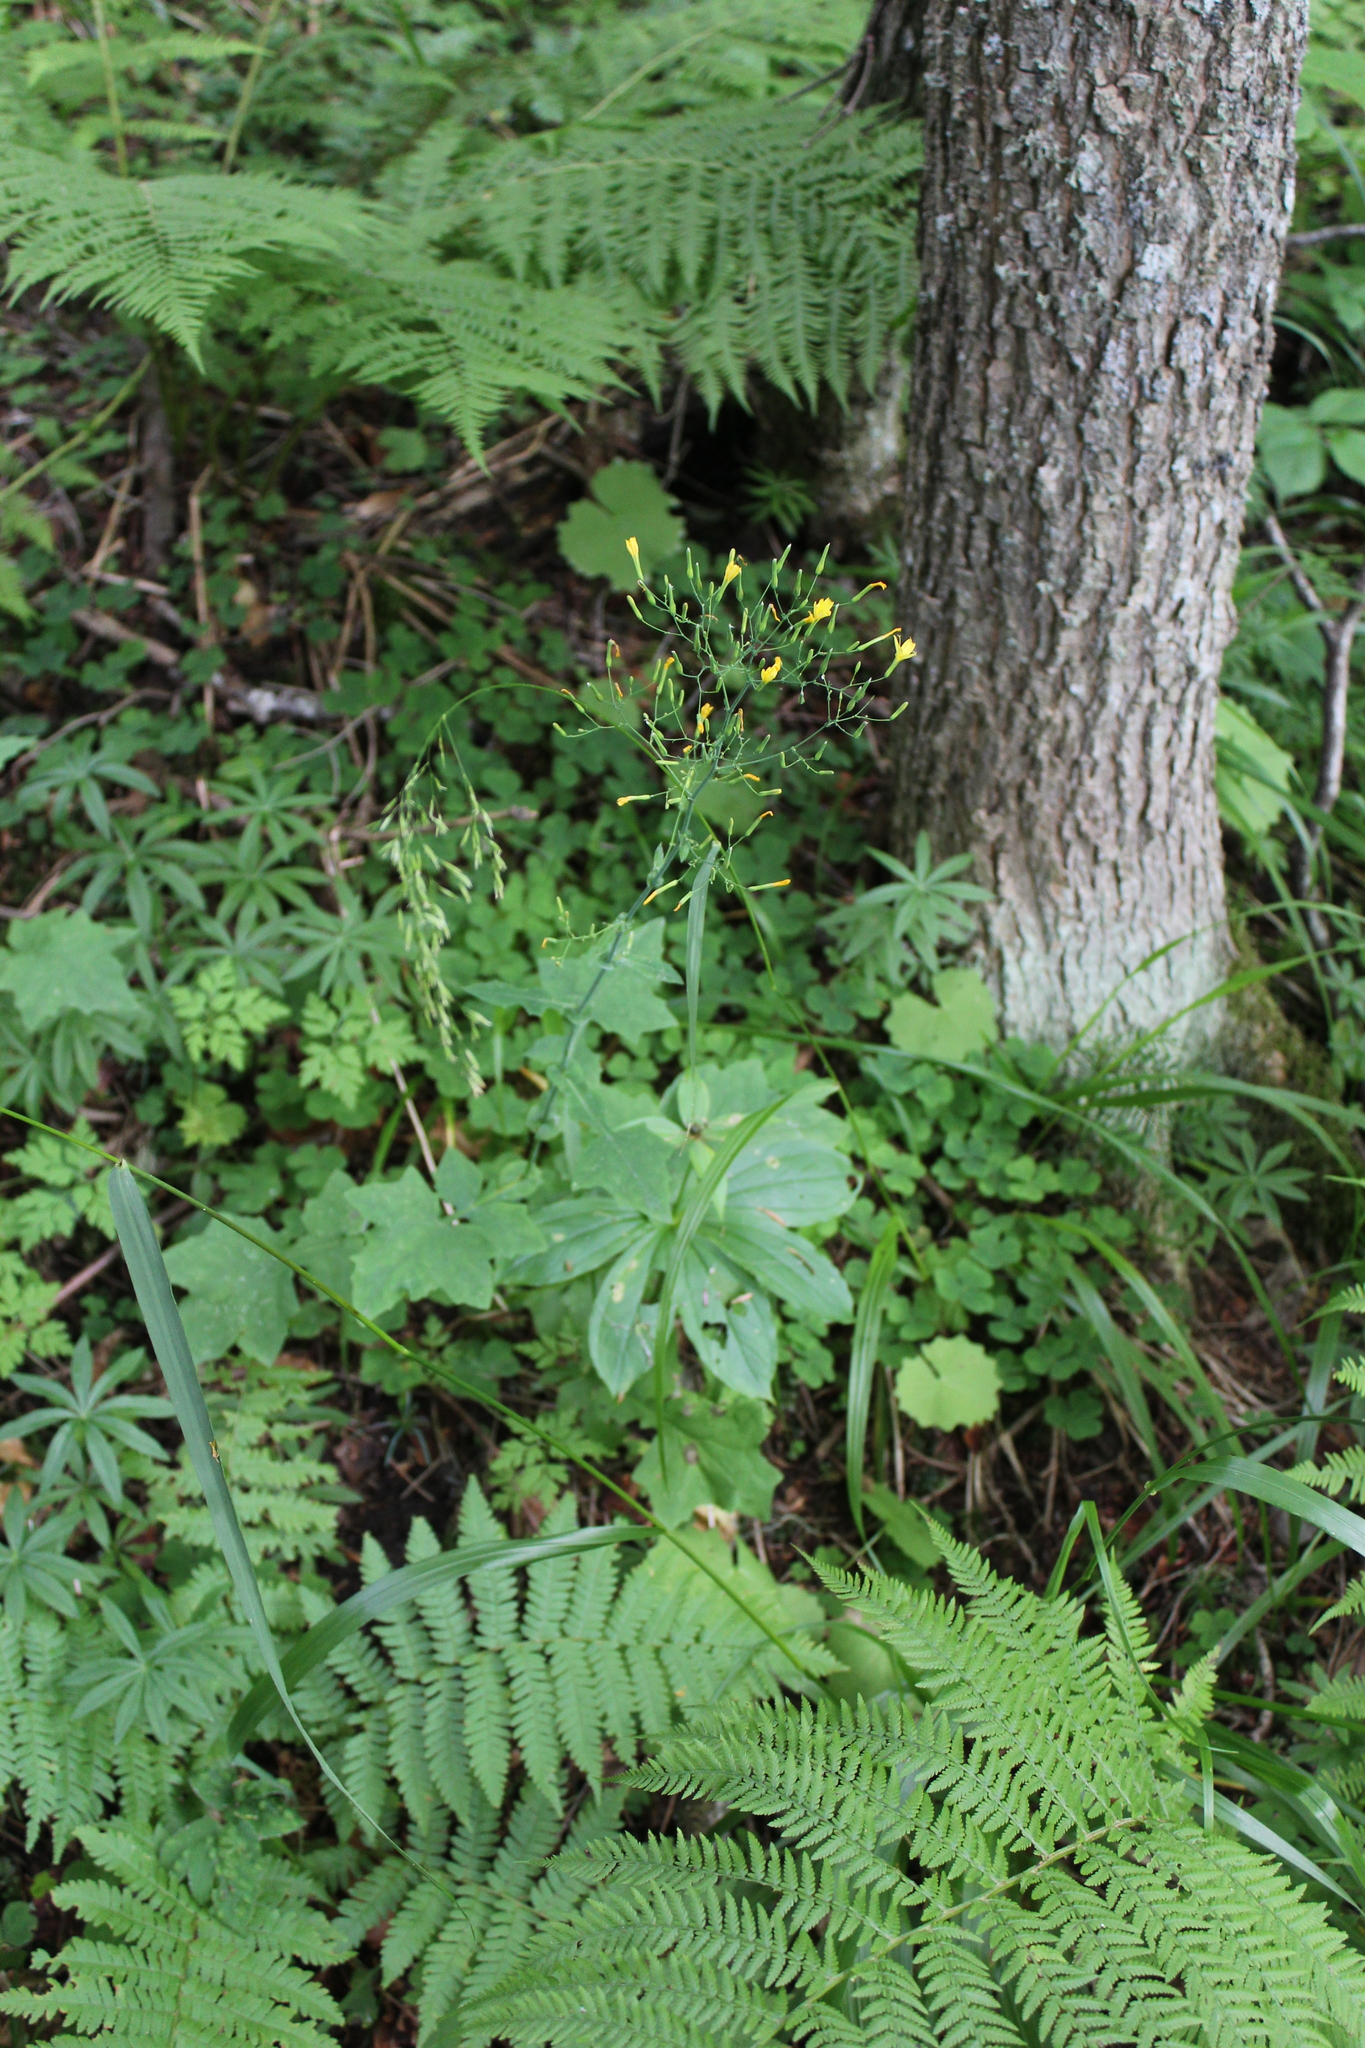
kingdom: Plantae
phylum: Tracheophyta
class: Magnoliopsida
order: Asterales
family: Asteraceae
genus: Mycelis
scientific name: Mycelis muralis
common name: Wall lettuce
